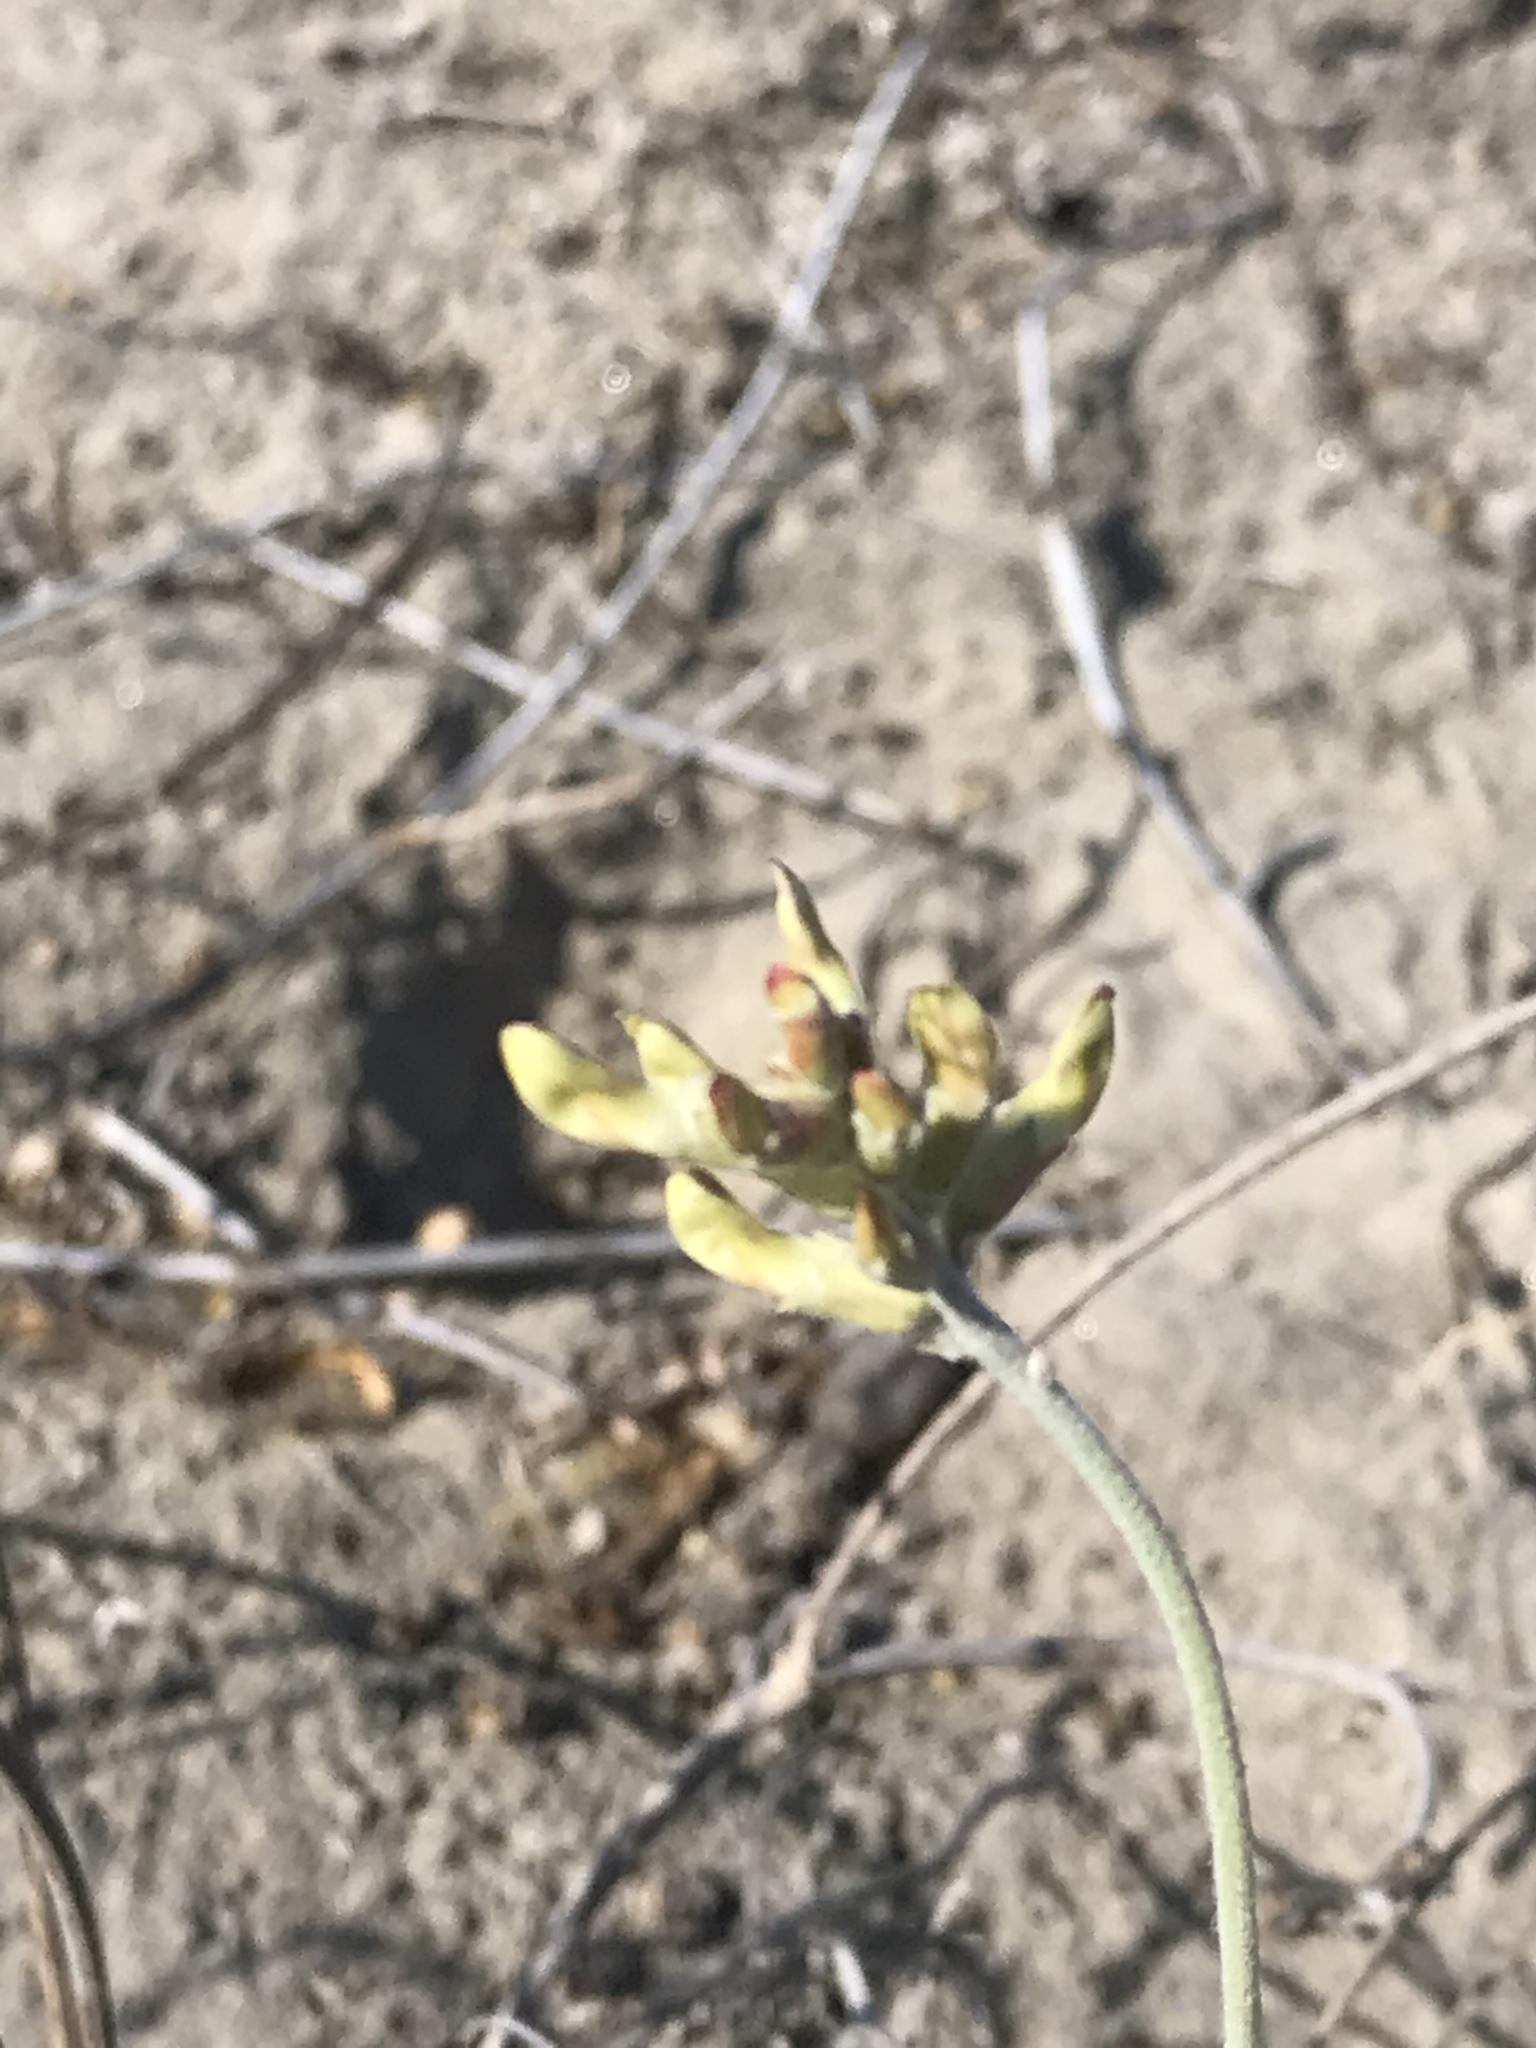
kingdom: Plantae
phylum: Tracheophyta
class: Magnoliopsida
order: Fabales
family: Fabaceae
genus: Astragalus
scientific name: Astragalus anemophilus
